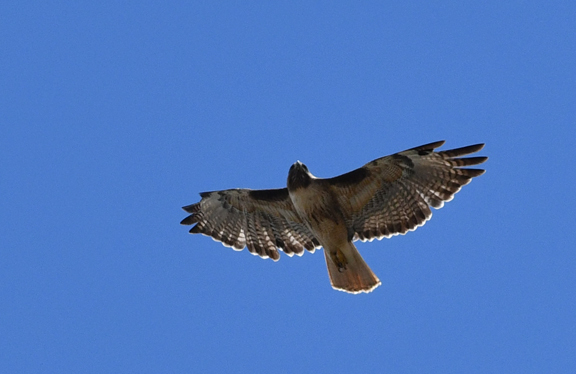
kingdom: Animalia
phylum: Chordata
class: Aves
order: Accipitriformes
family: Accipitridae
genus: Buteo
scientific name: Buteo jamaicensis
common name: Red-tailed hawk
